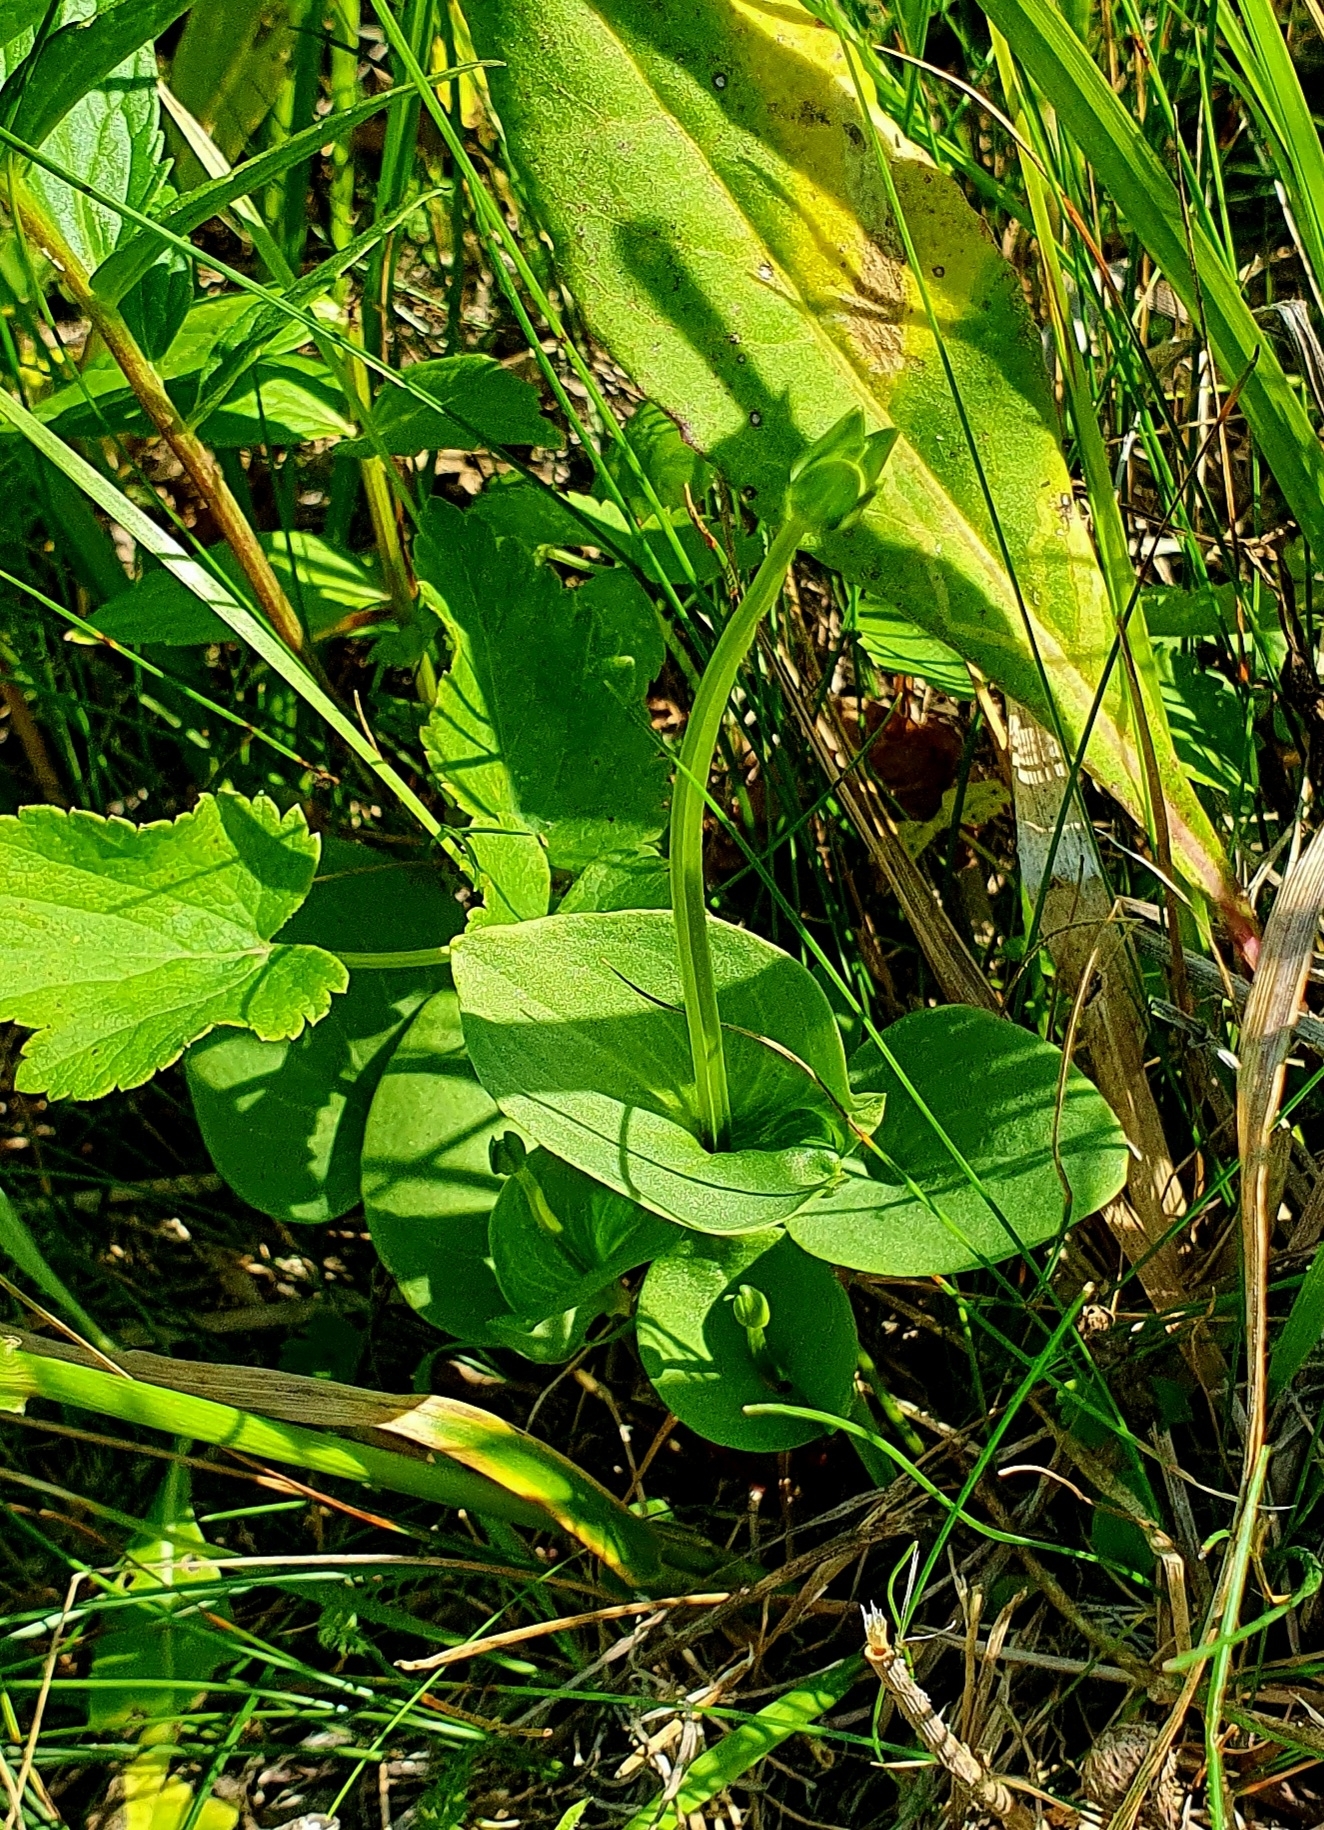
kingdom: Plantae
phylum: Tracheophyta
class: Magnoliopsida
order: Celastrales
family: Parnassiaceae
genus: Parnassia
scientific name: Parnassia palustris
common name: Grass-of-parnassus
